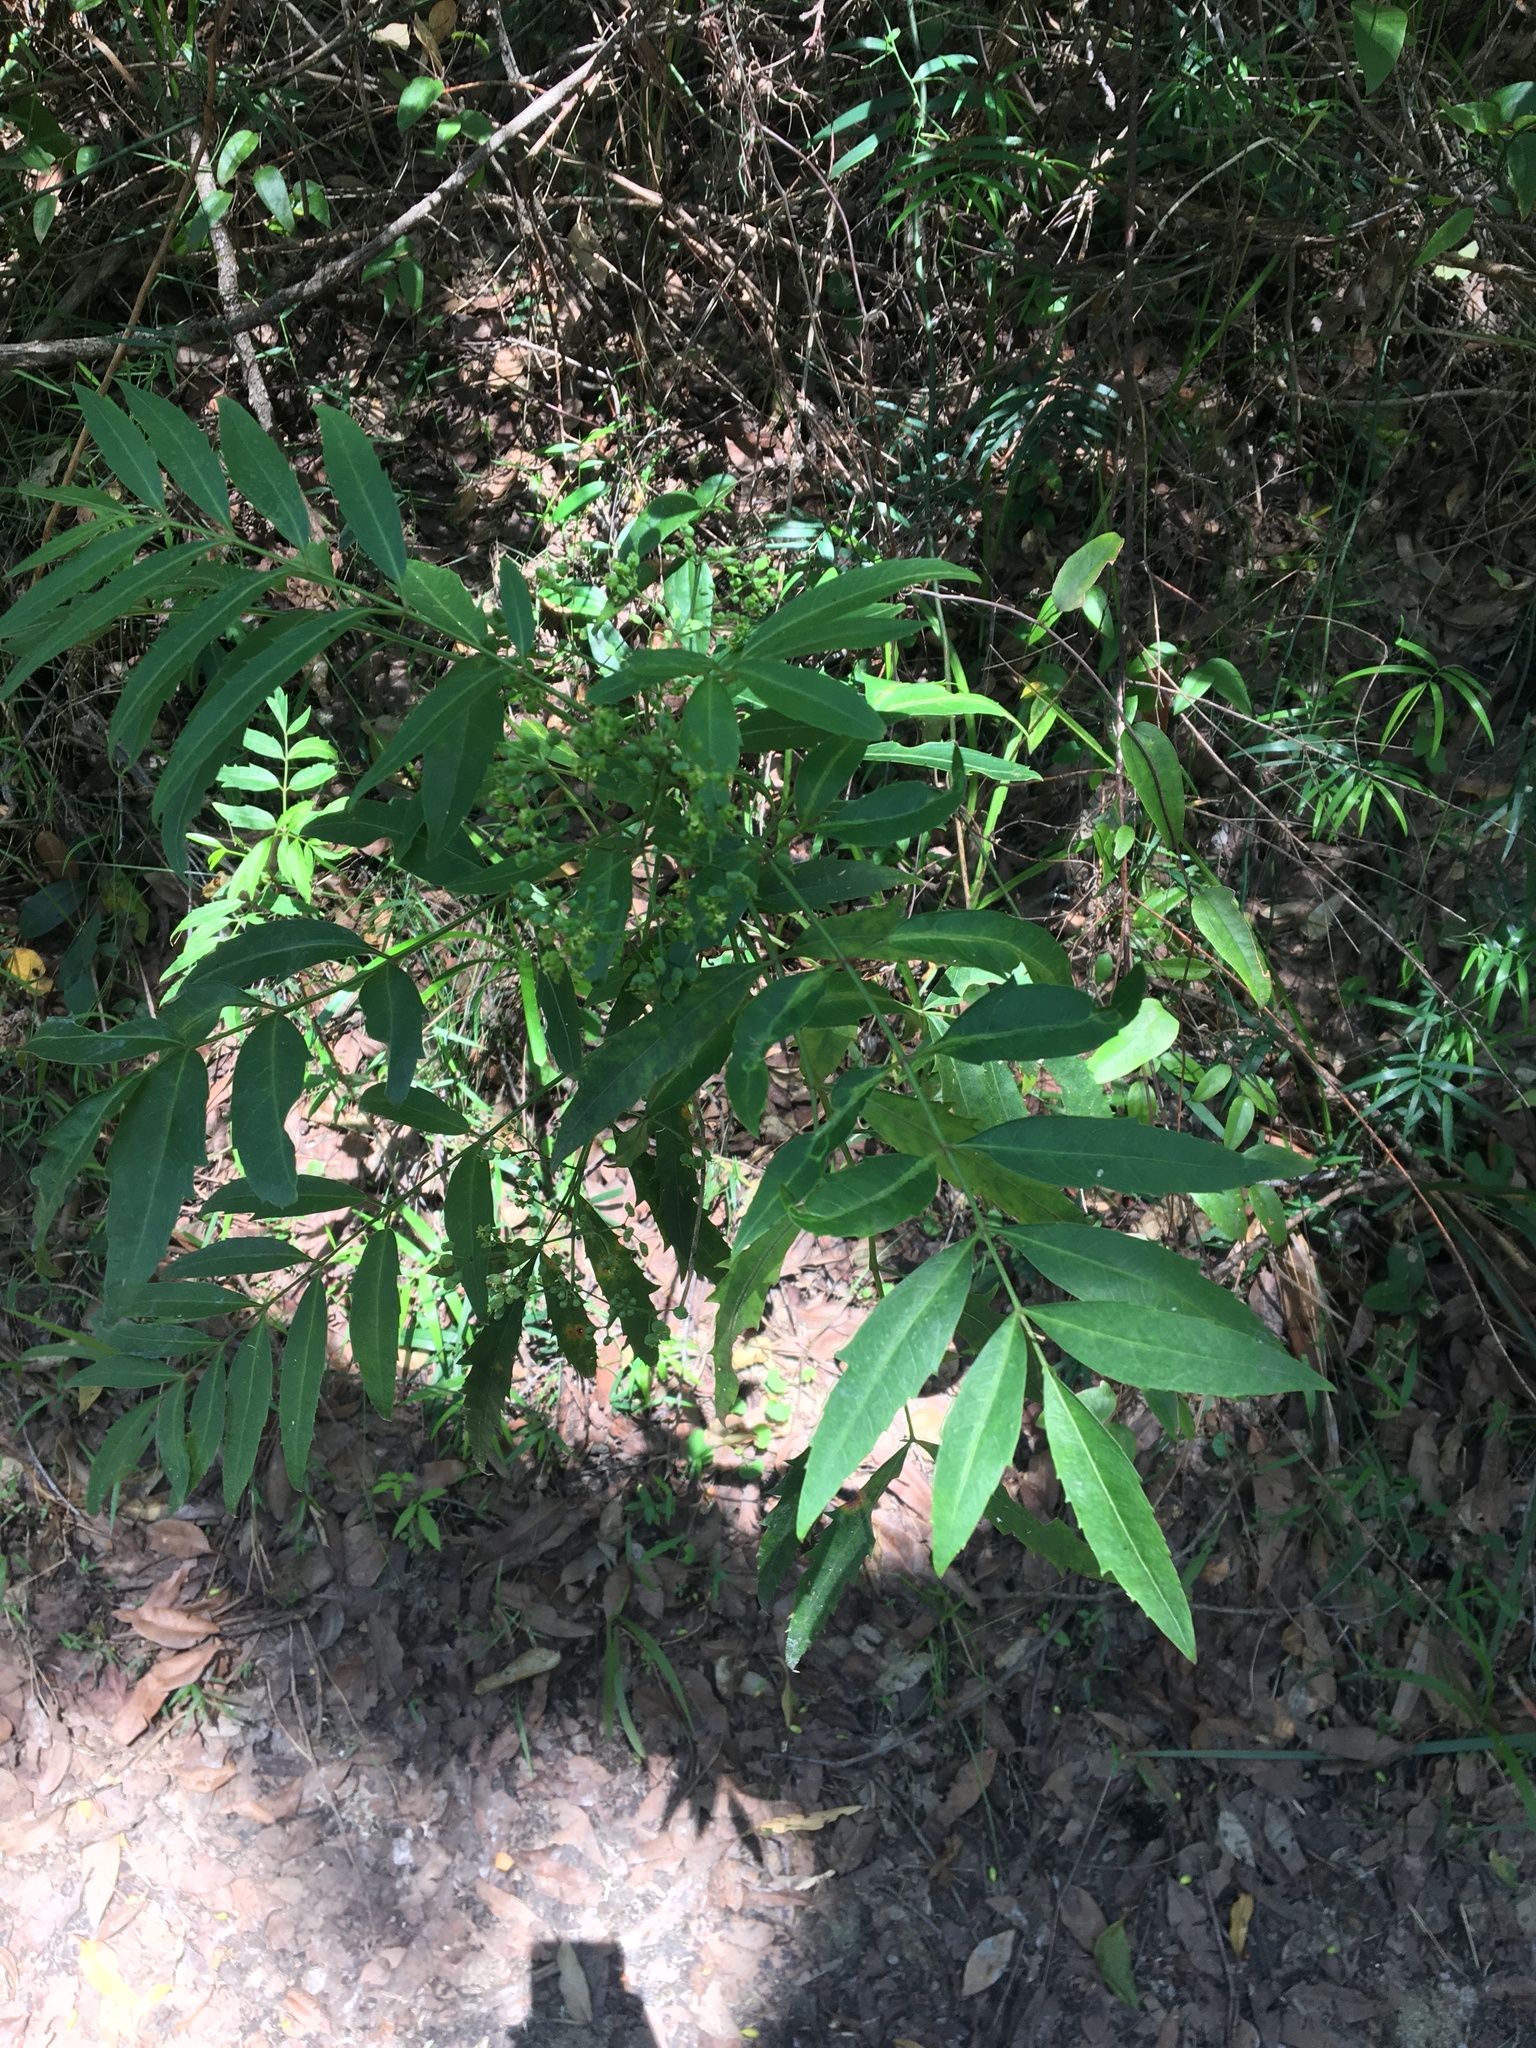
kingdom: Plantae
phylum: Tracheophyta
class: Magnoliopsida
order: Apiales
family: Araliaceae
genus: Polyscias
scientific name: Polyscias sambucifolia
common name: Elderberry-ash
